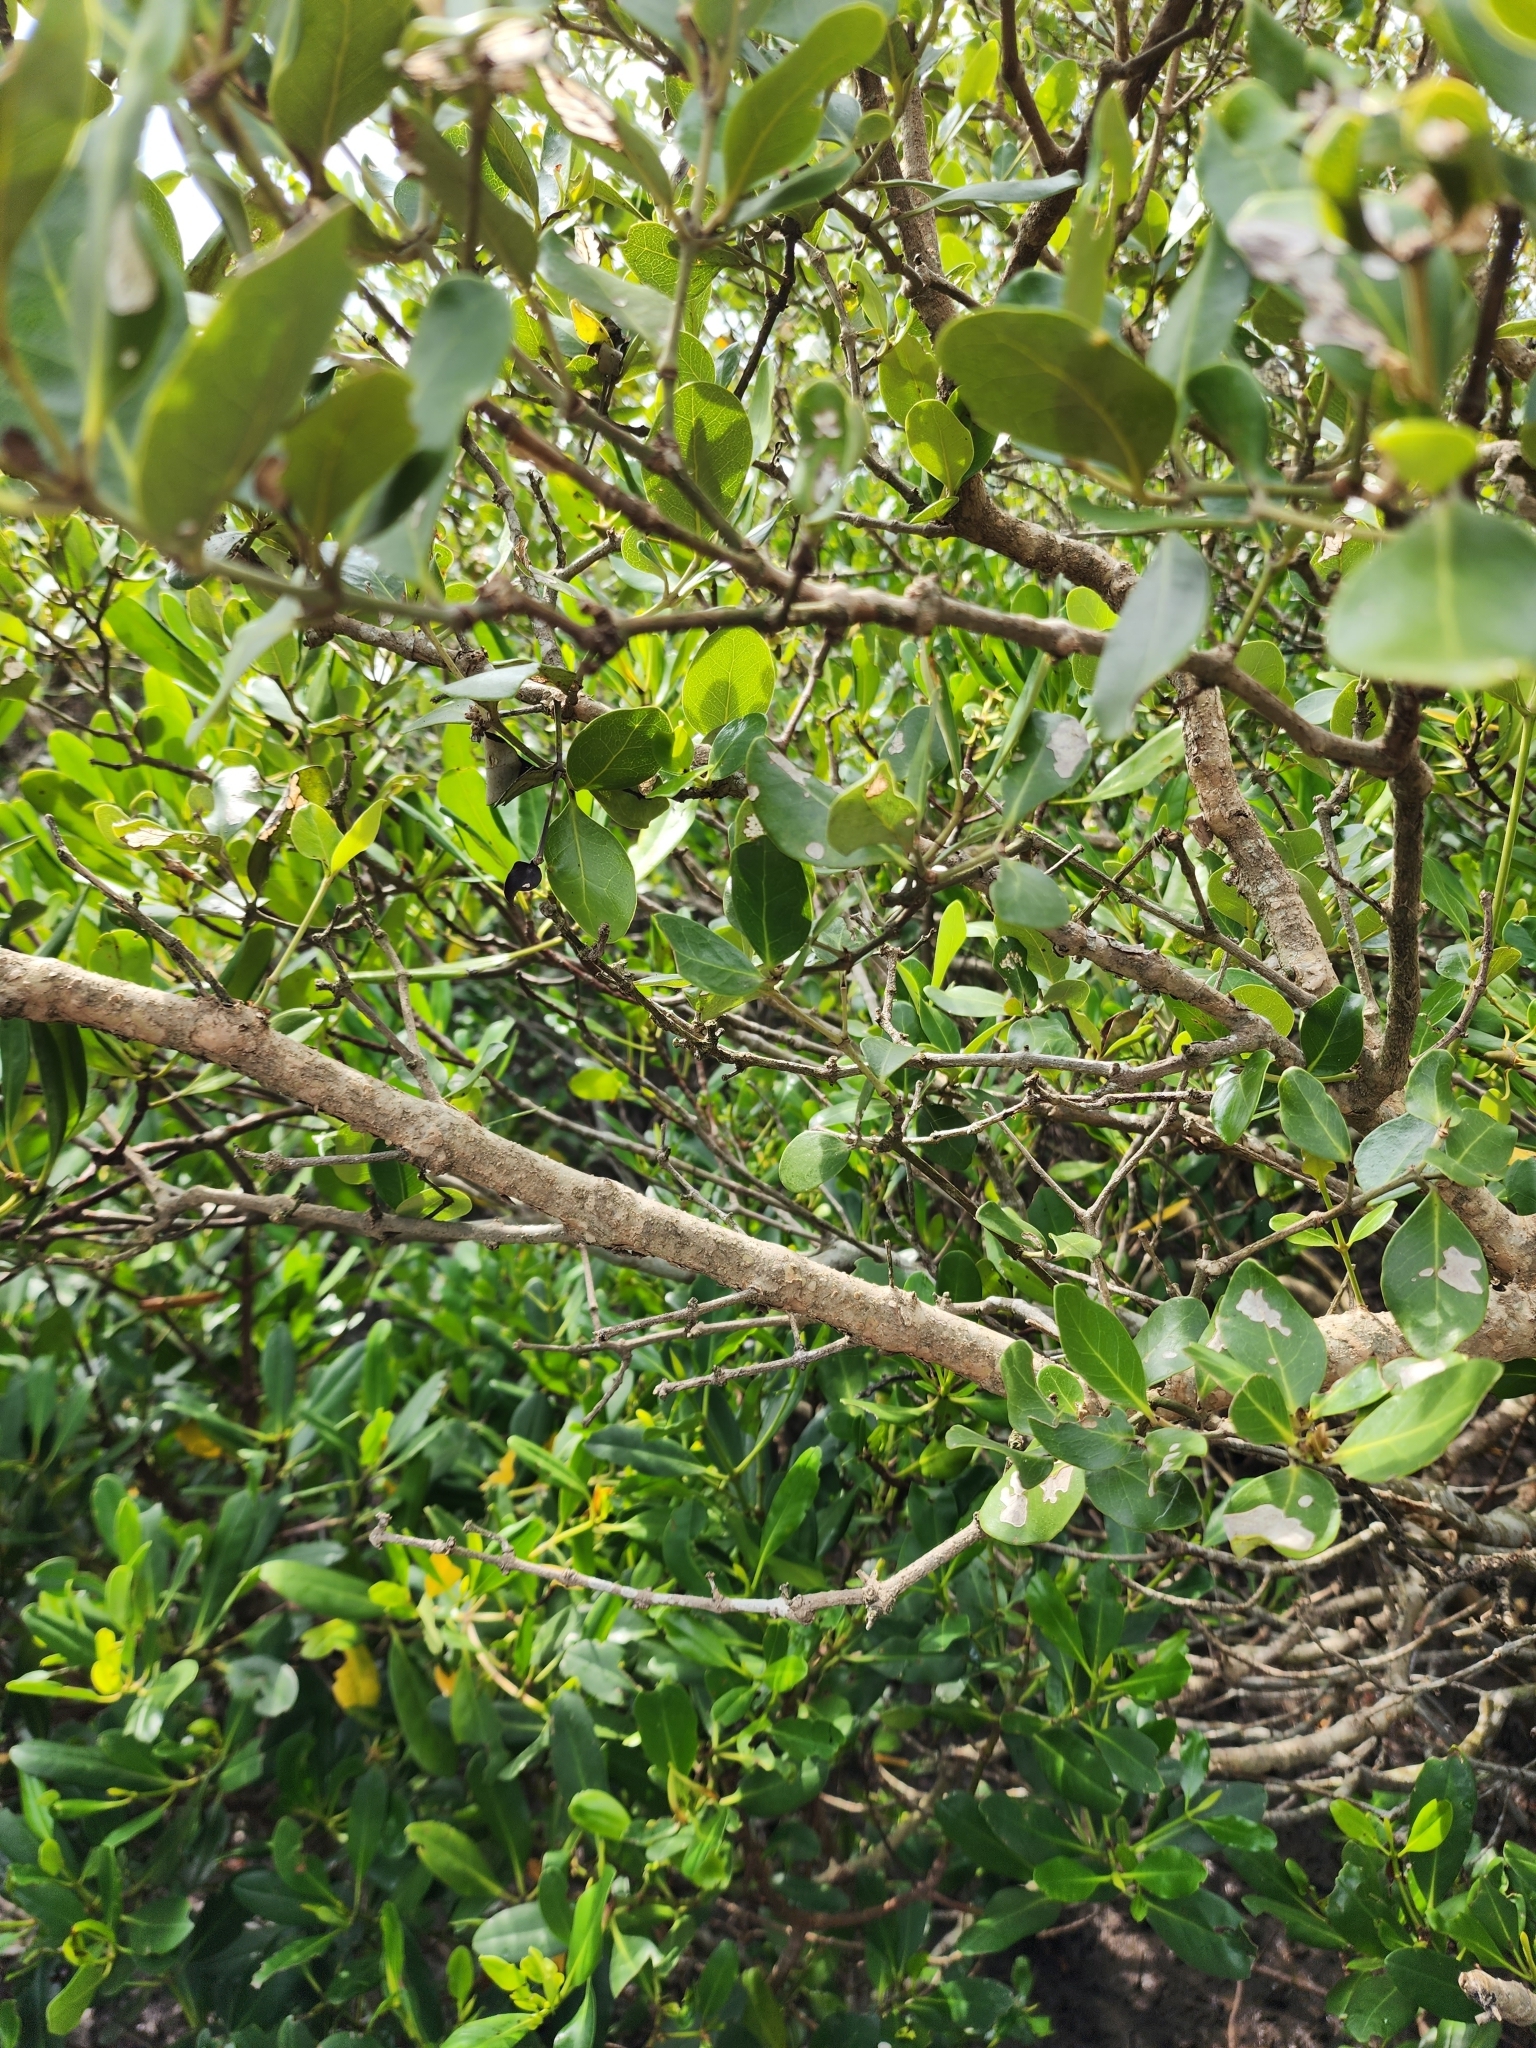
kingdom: Plantae
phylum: Tracheophyta
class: Magnoliopsida
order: Lamiales
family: Acanthaceae
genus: Avicennia
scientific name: Avicennia marina
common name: Gray mangrove
